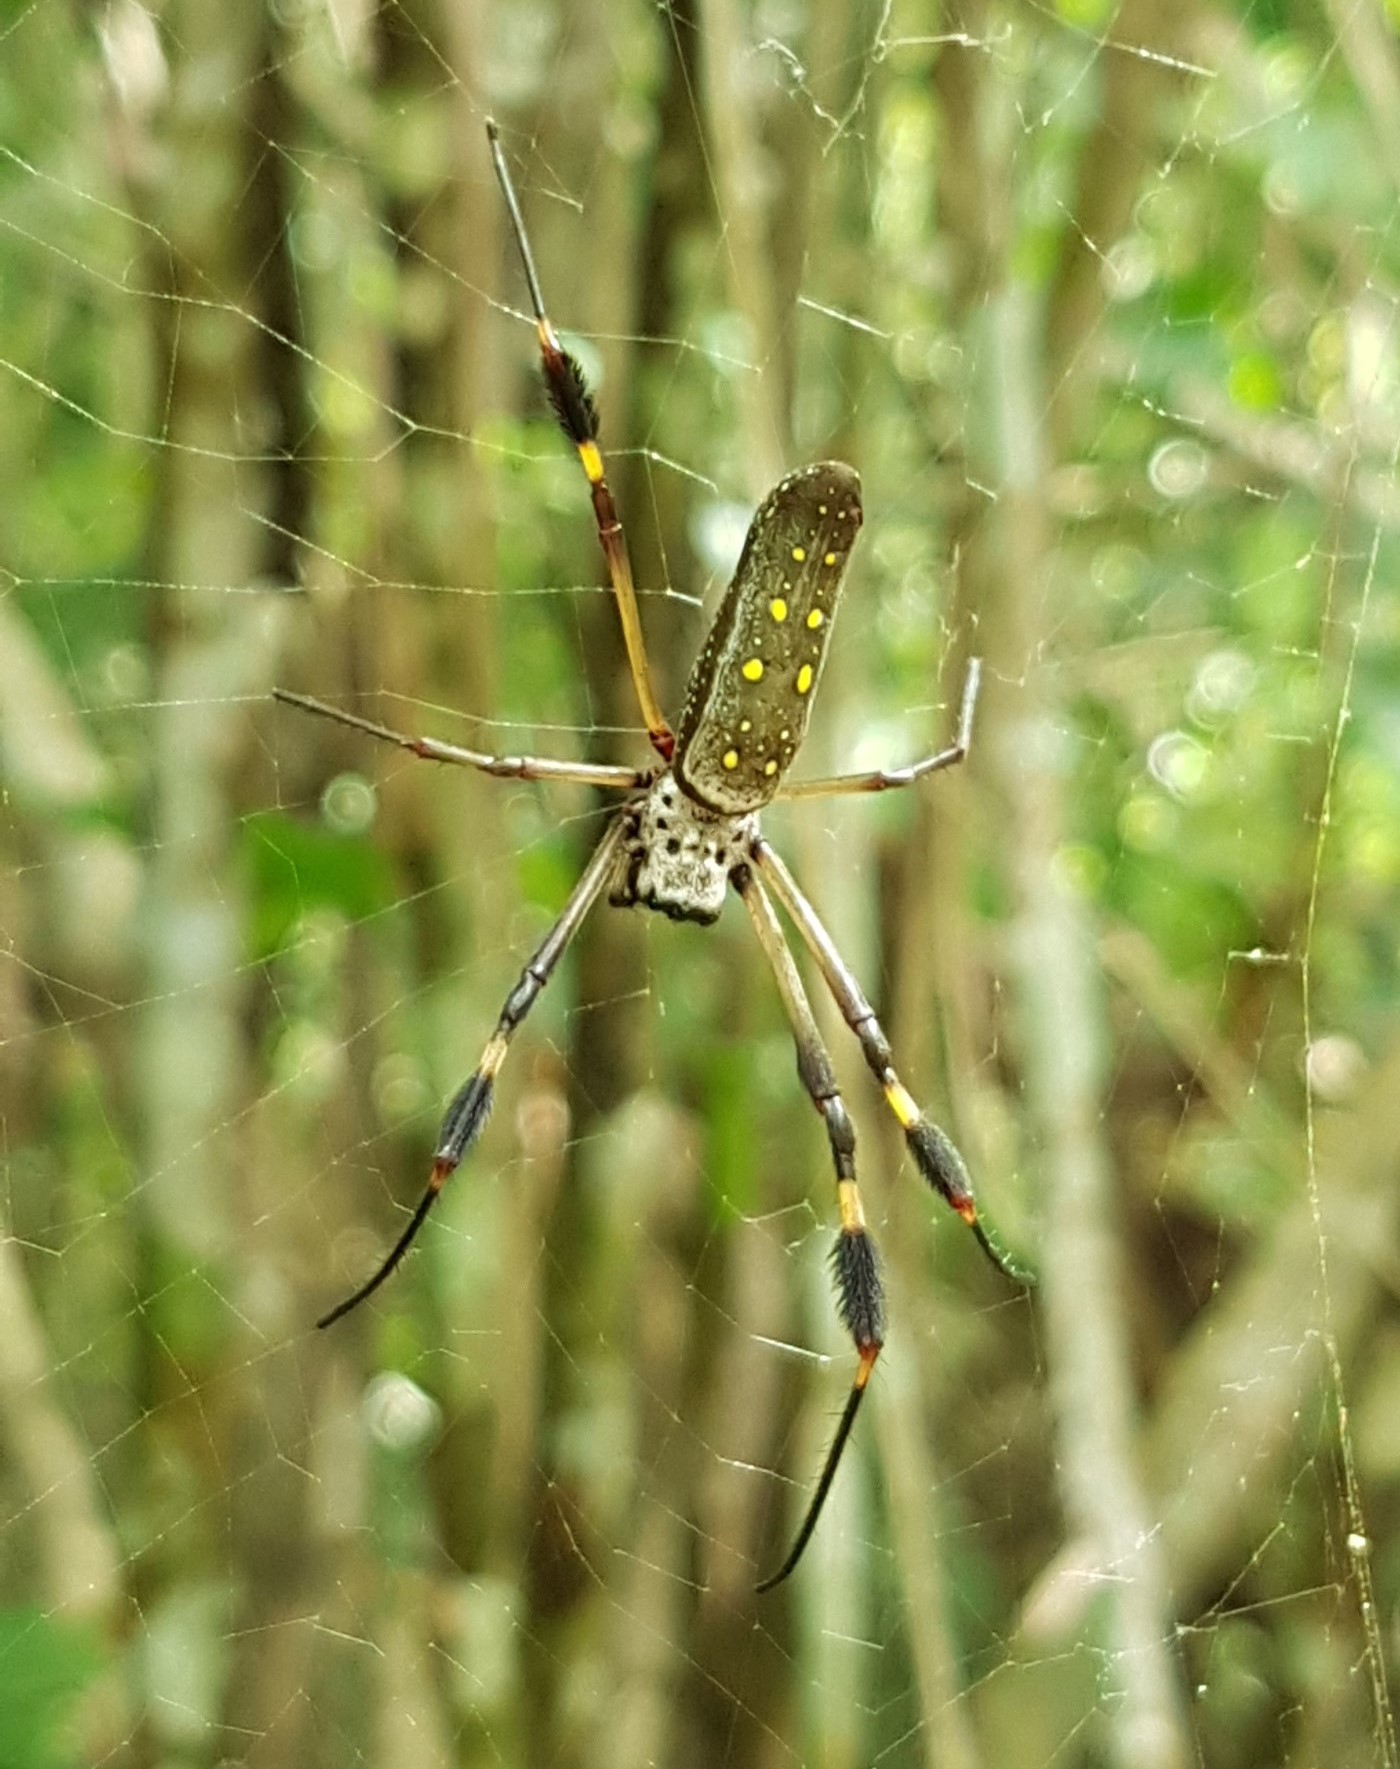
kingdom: Animalia
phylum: Arthropoda
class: Arachnida
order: Araneae
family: Araneidae
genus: Trichonephila
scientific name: Trichonephila clavipes
